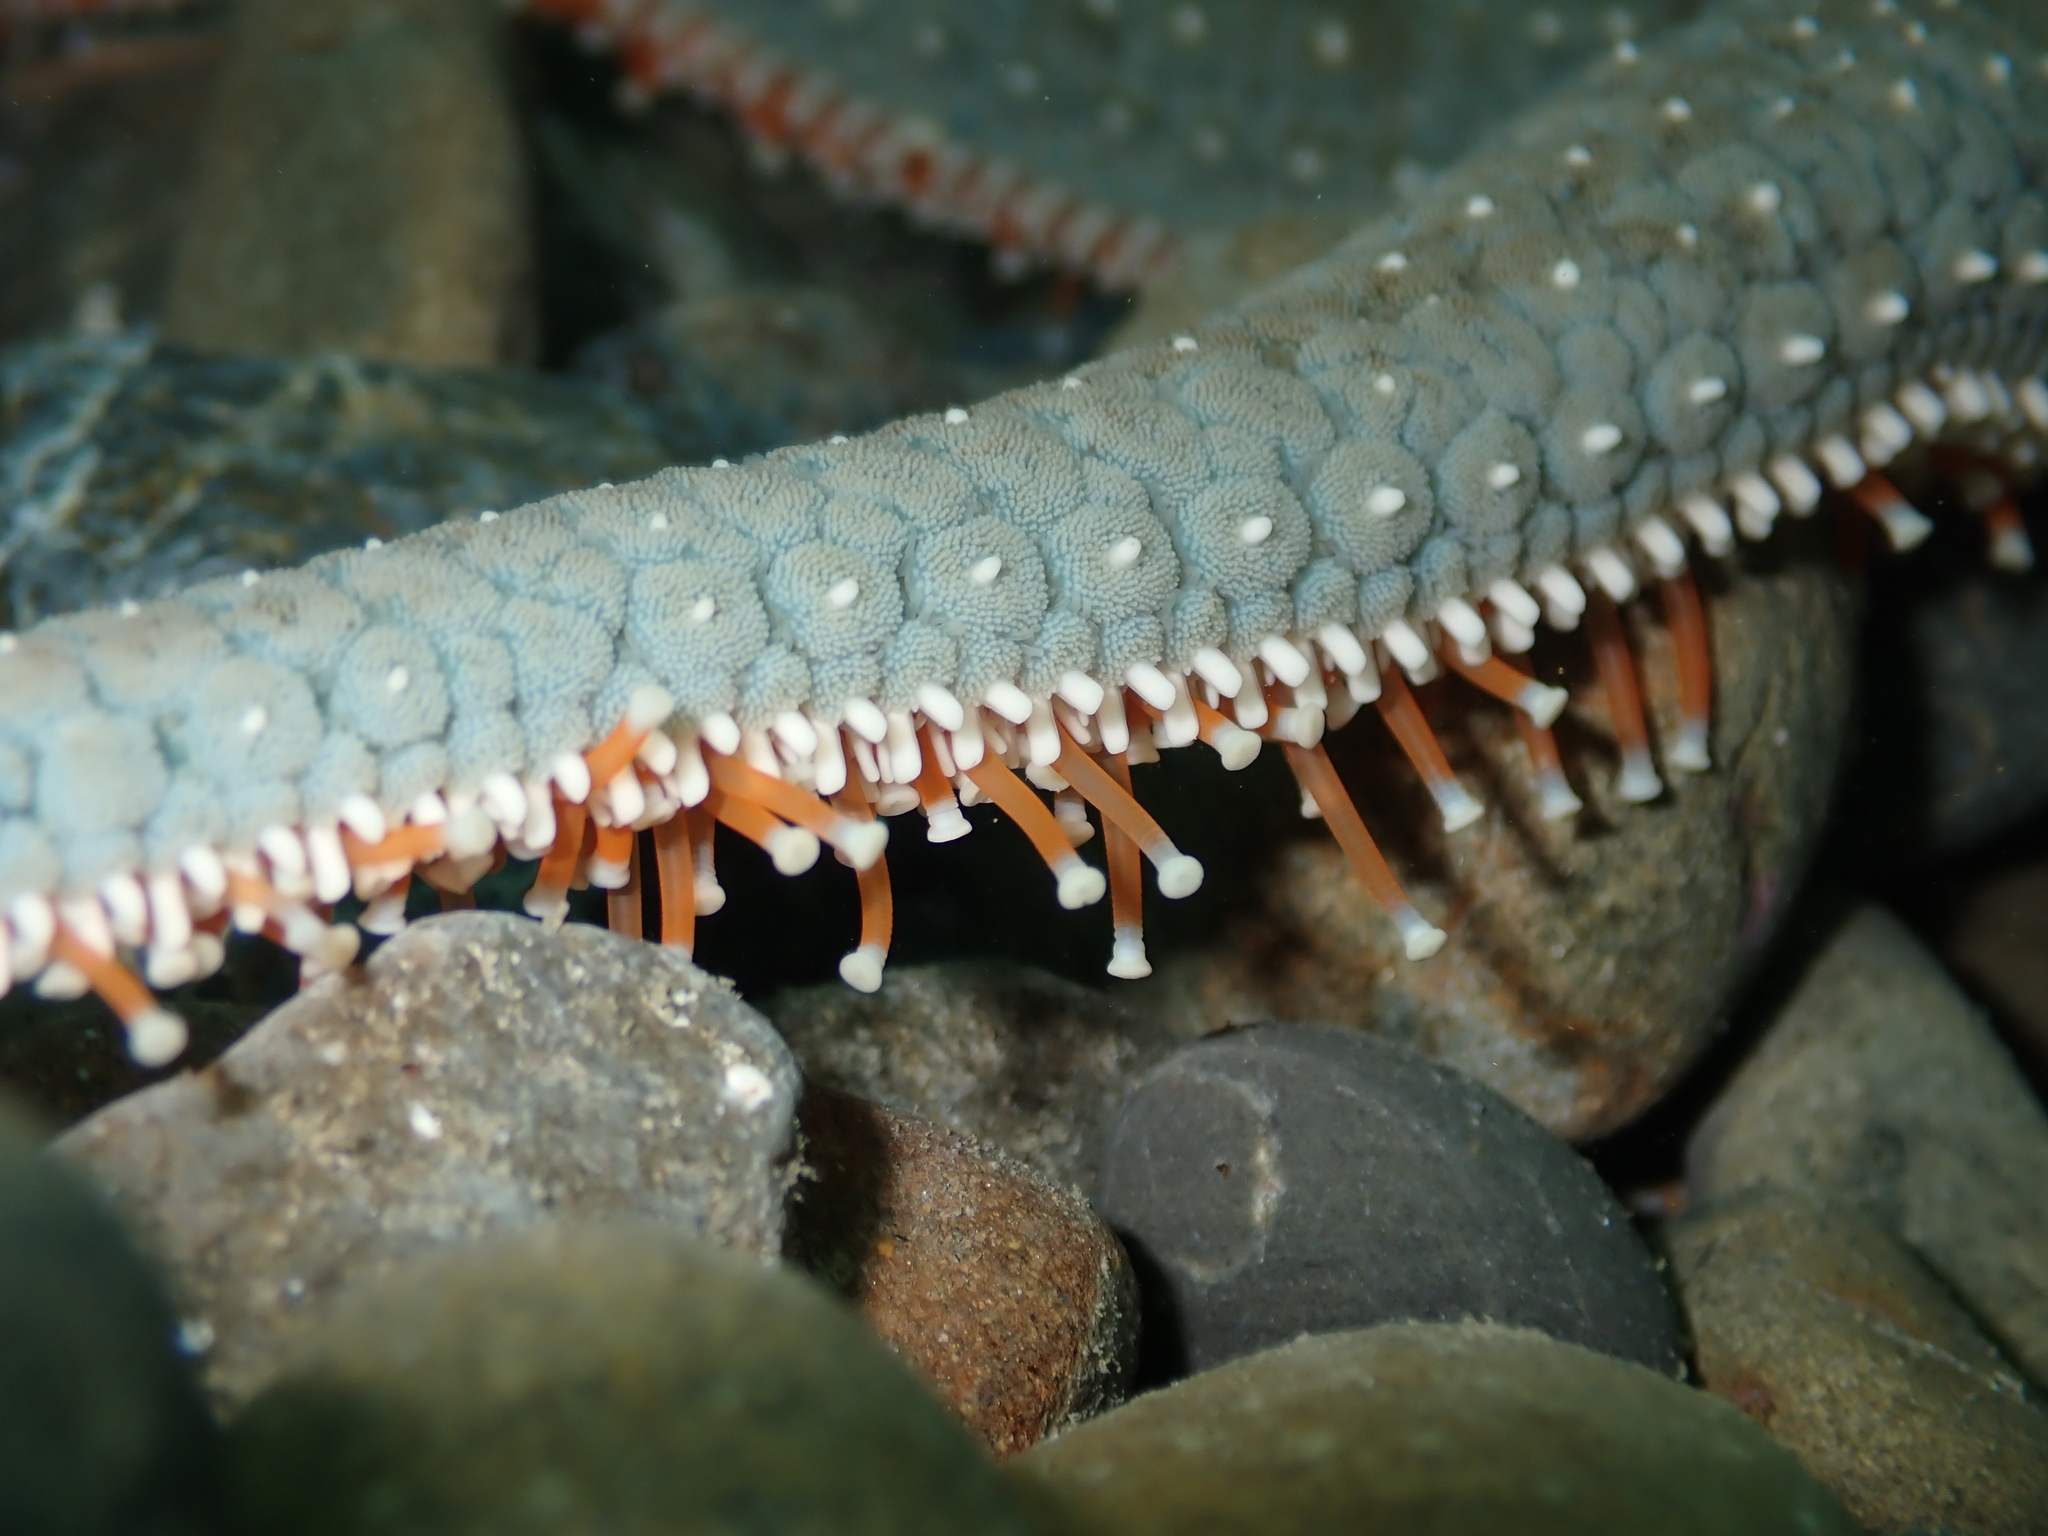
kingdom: Animalia
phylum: Echinodermata
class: Asteroidea
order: Forcipulatida
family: Asteriidae
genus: Astrostole
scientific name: Astrostole scabra
